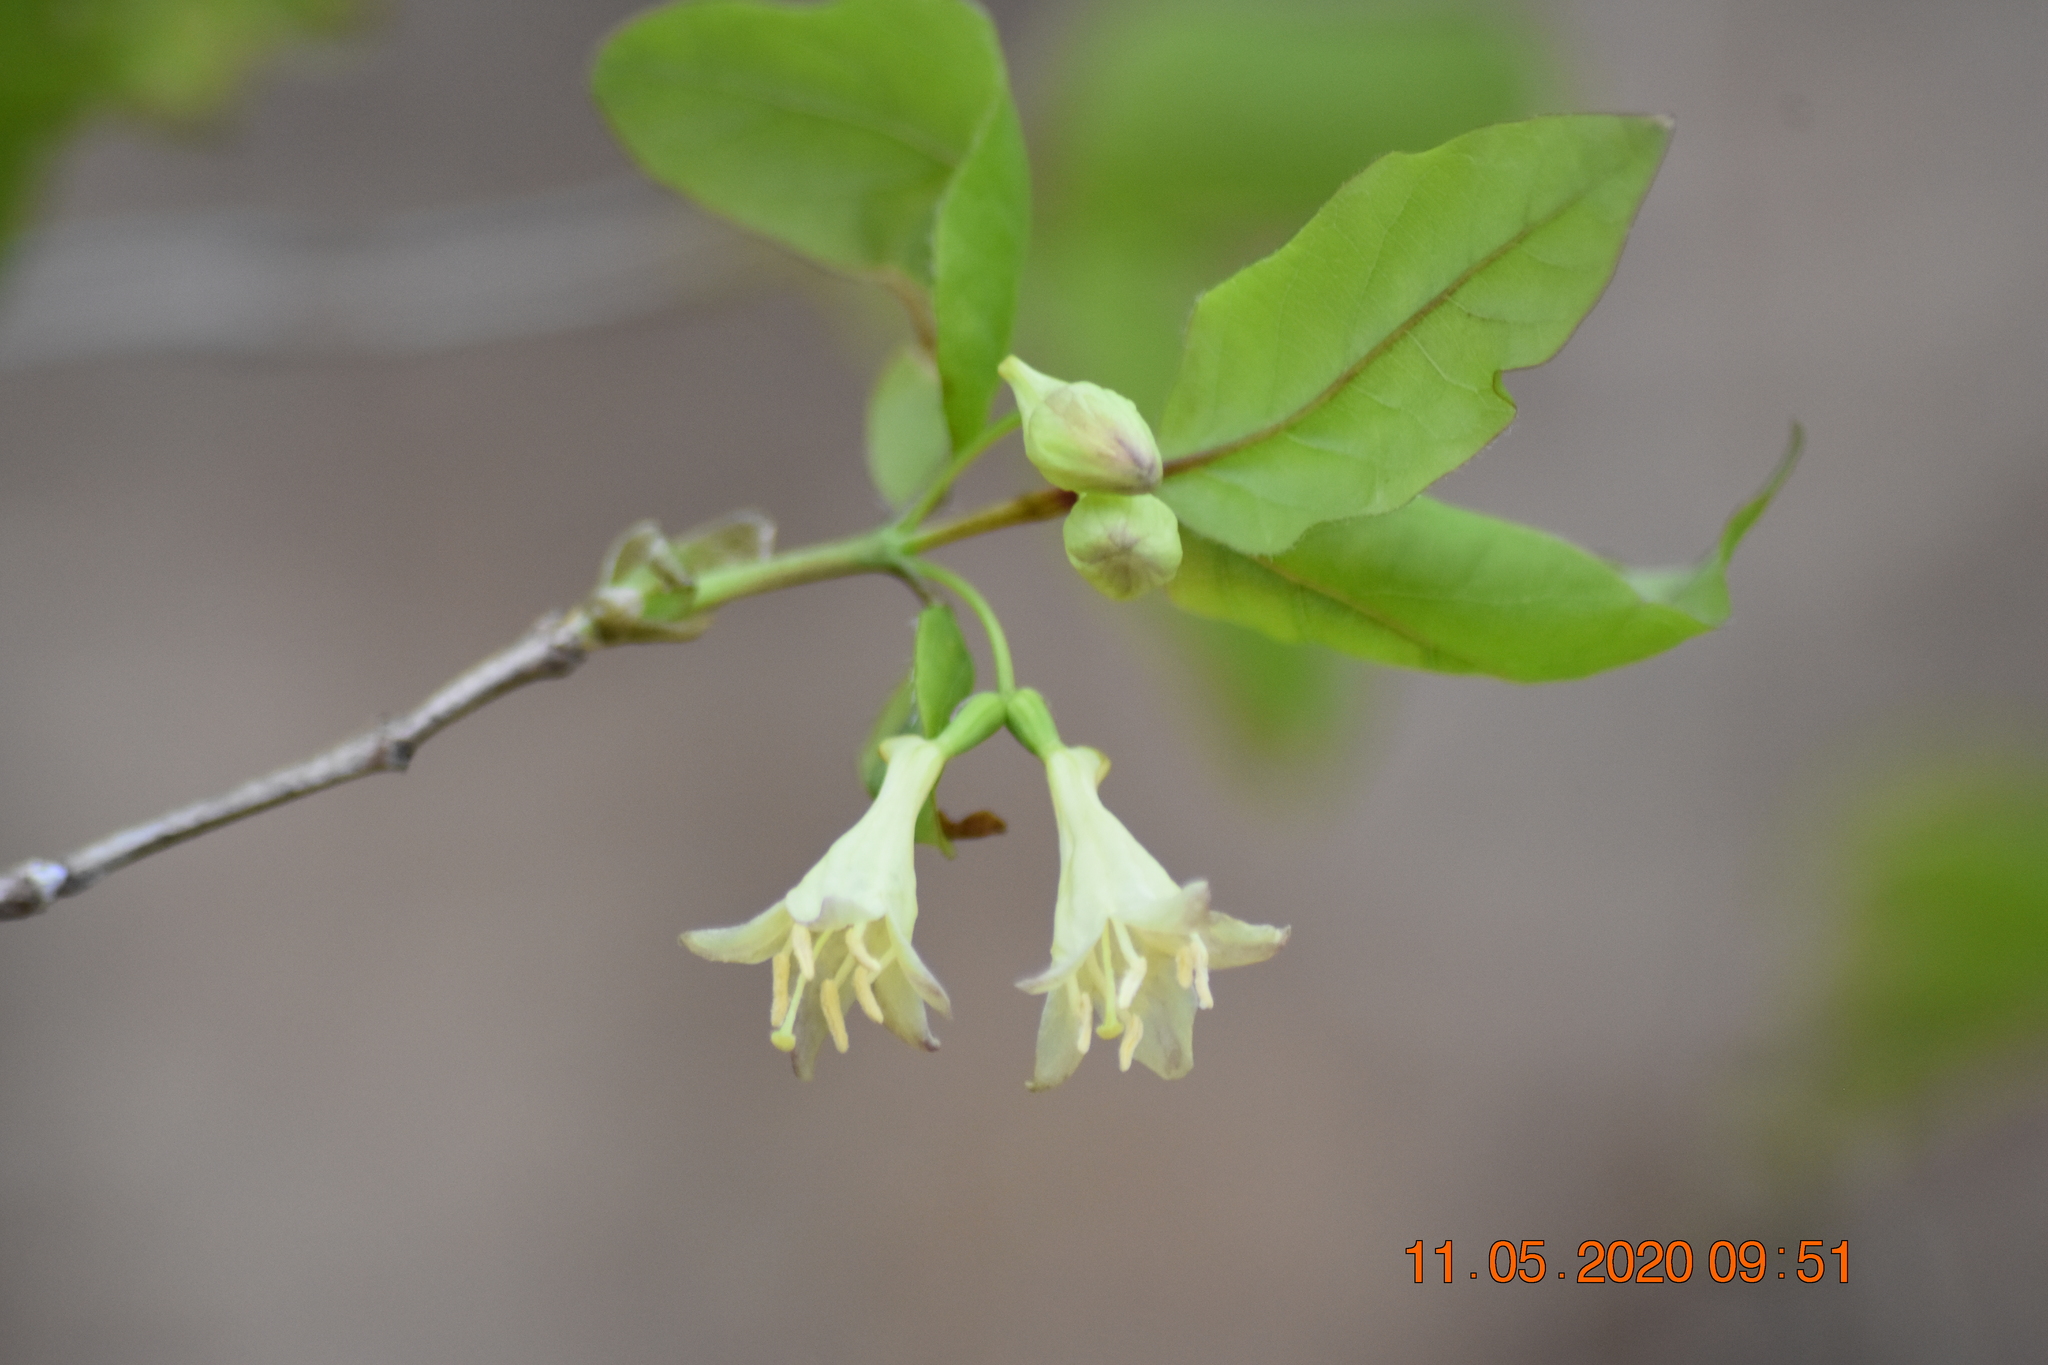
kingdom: Plantae
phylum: Tracheophyta
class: Magnoliopsida
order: Dipsacales
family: Caprifoliaceae
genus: Lonicera
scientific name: Lonicera canadensis
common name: American fly-honeysuckle
